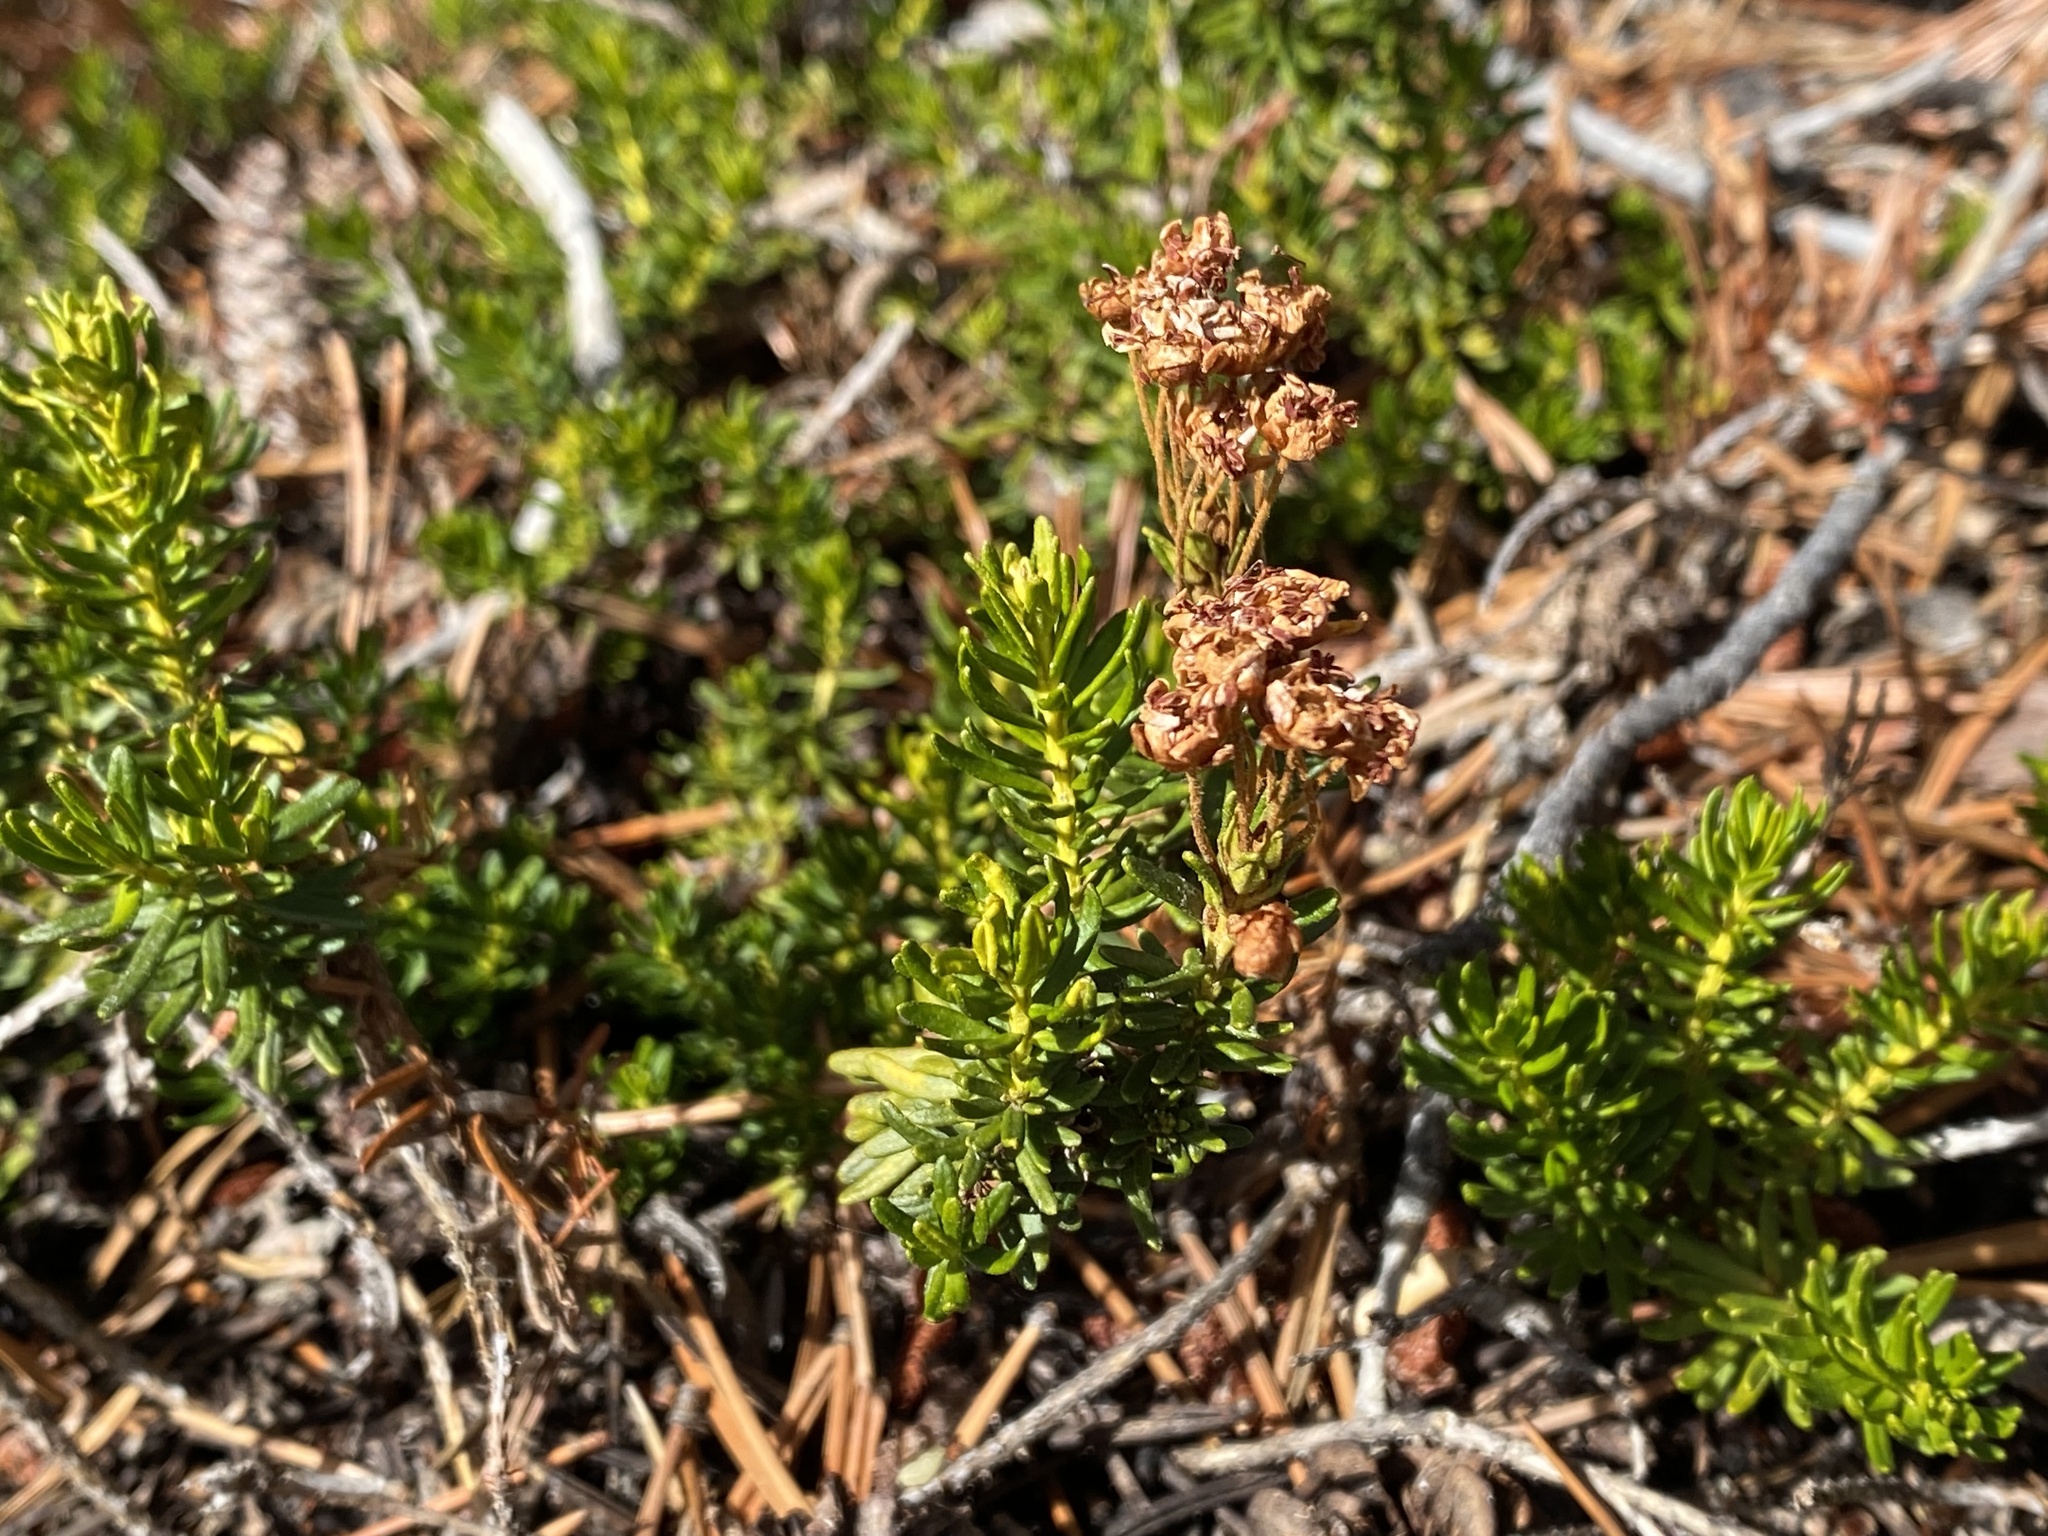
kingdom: Plantae
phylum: Tracheophyta
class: Magnoliopsida
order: Ericales
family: Ericaceae
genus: Phyllodoce
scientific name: Phyllodoce breweri
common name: Brewer's mountain-heather
